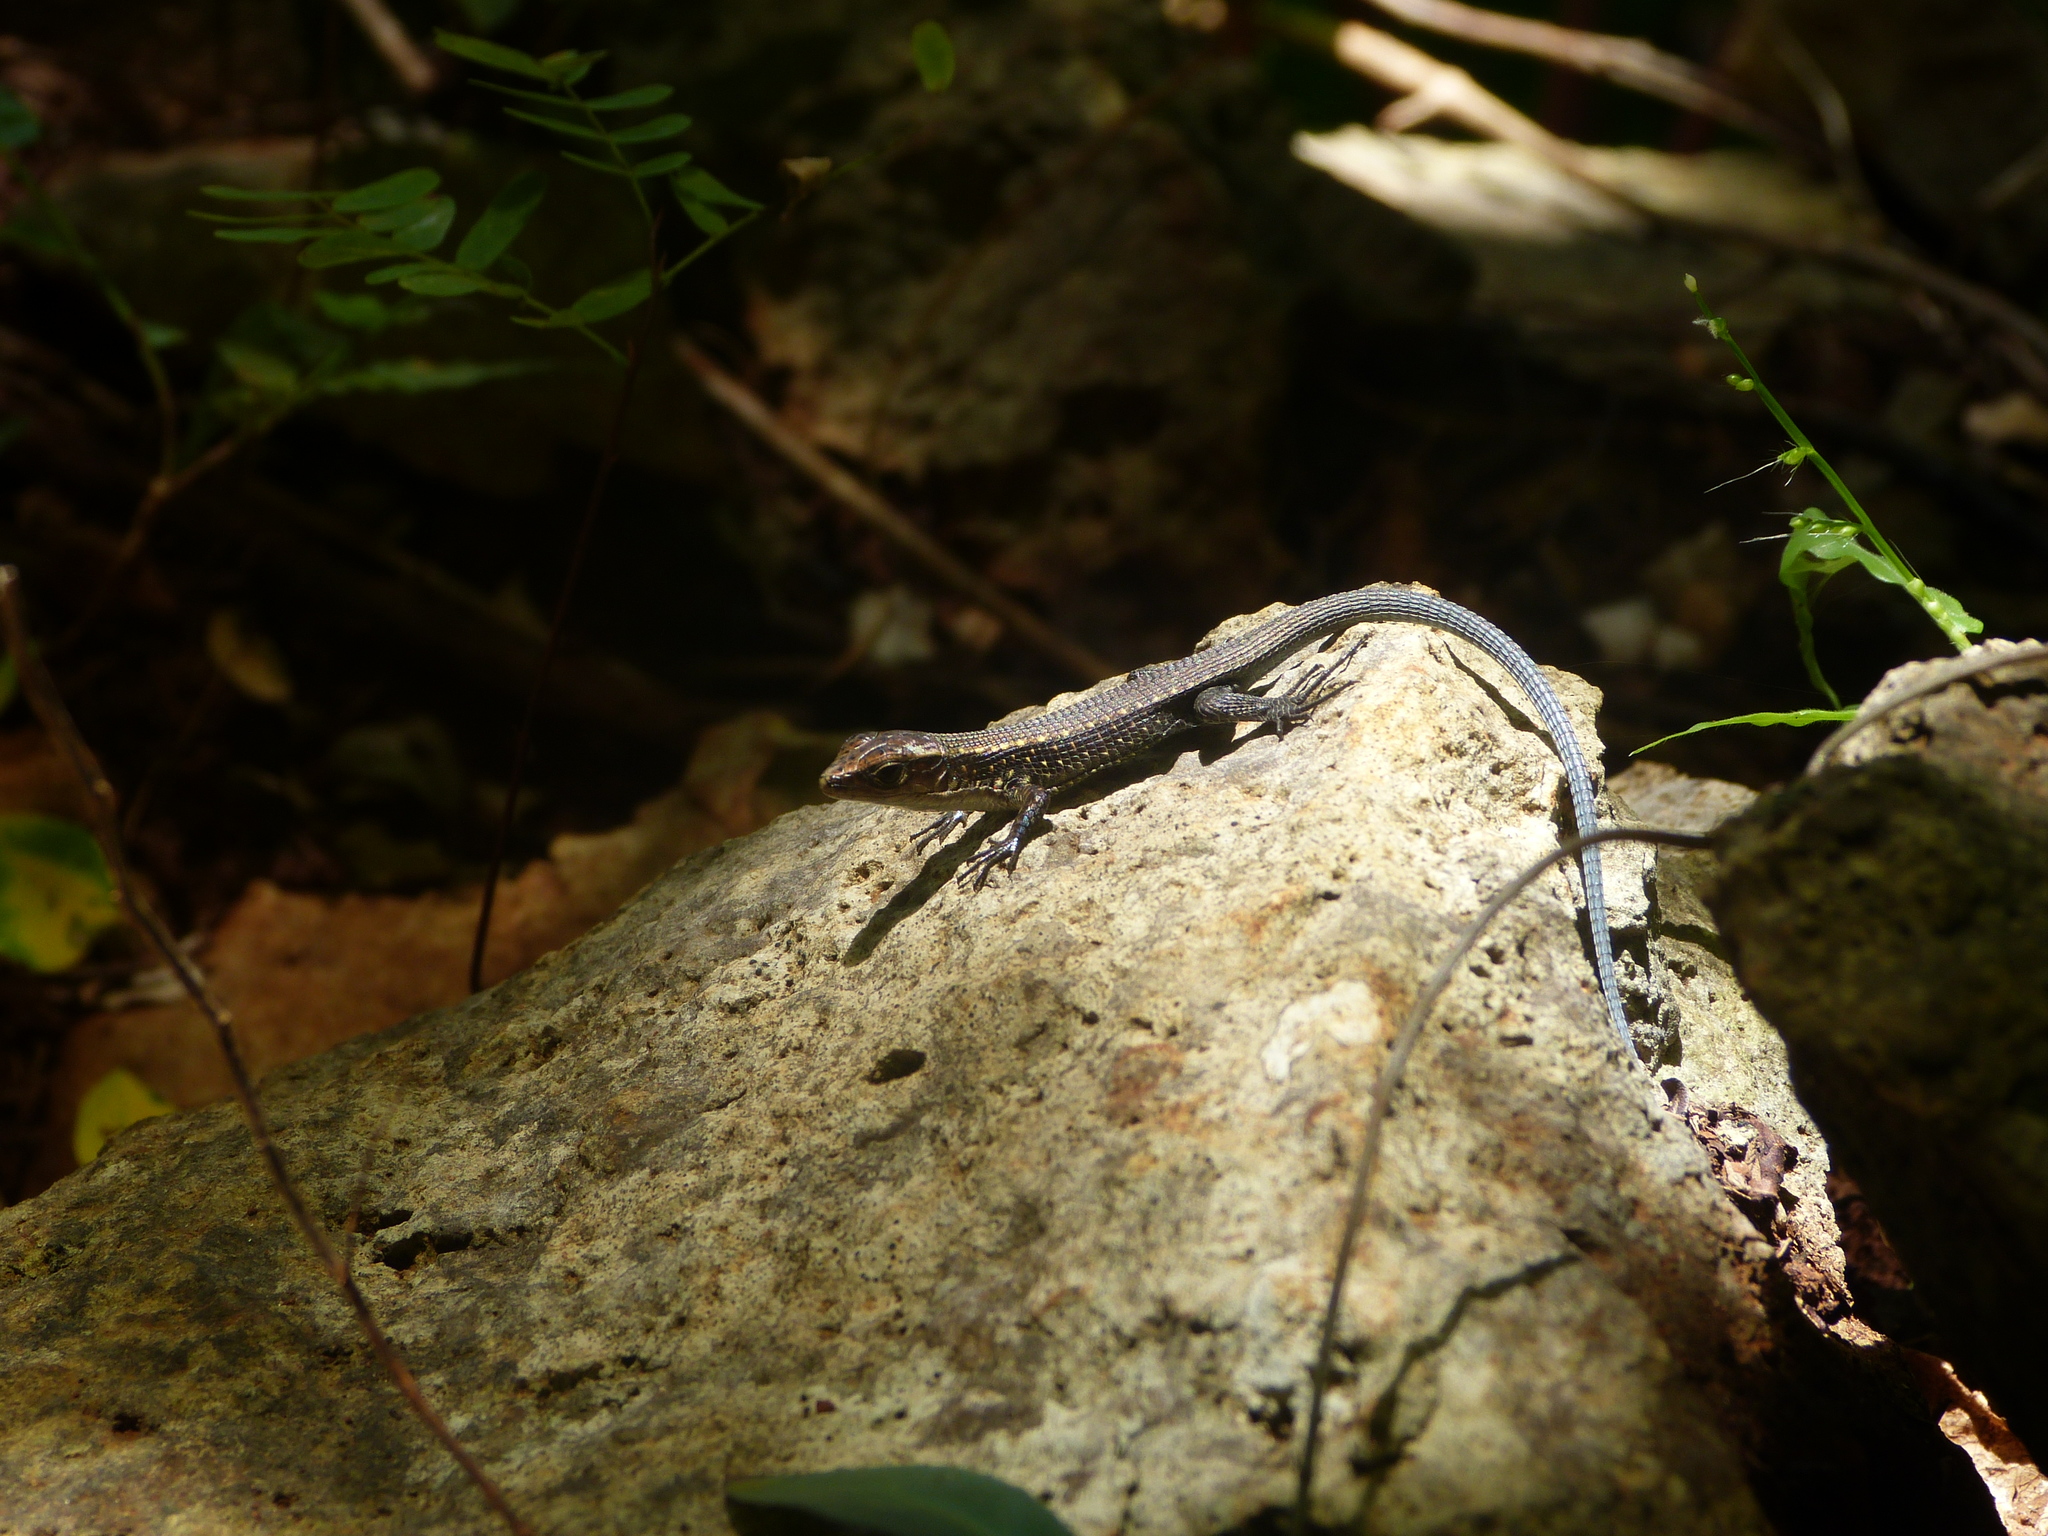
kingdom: Animalia
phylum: Chordata
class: Squamata
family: Gerrhosauridae
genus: Zonosaurus
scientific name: Zonosaurus tsingy
